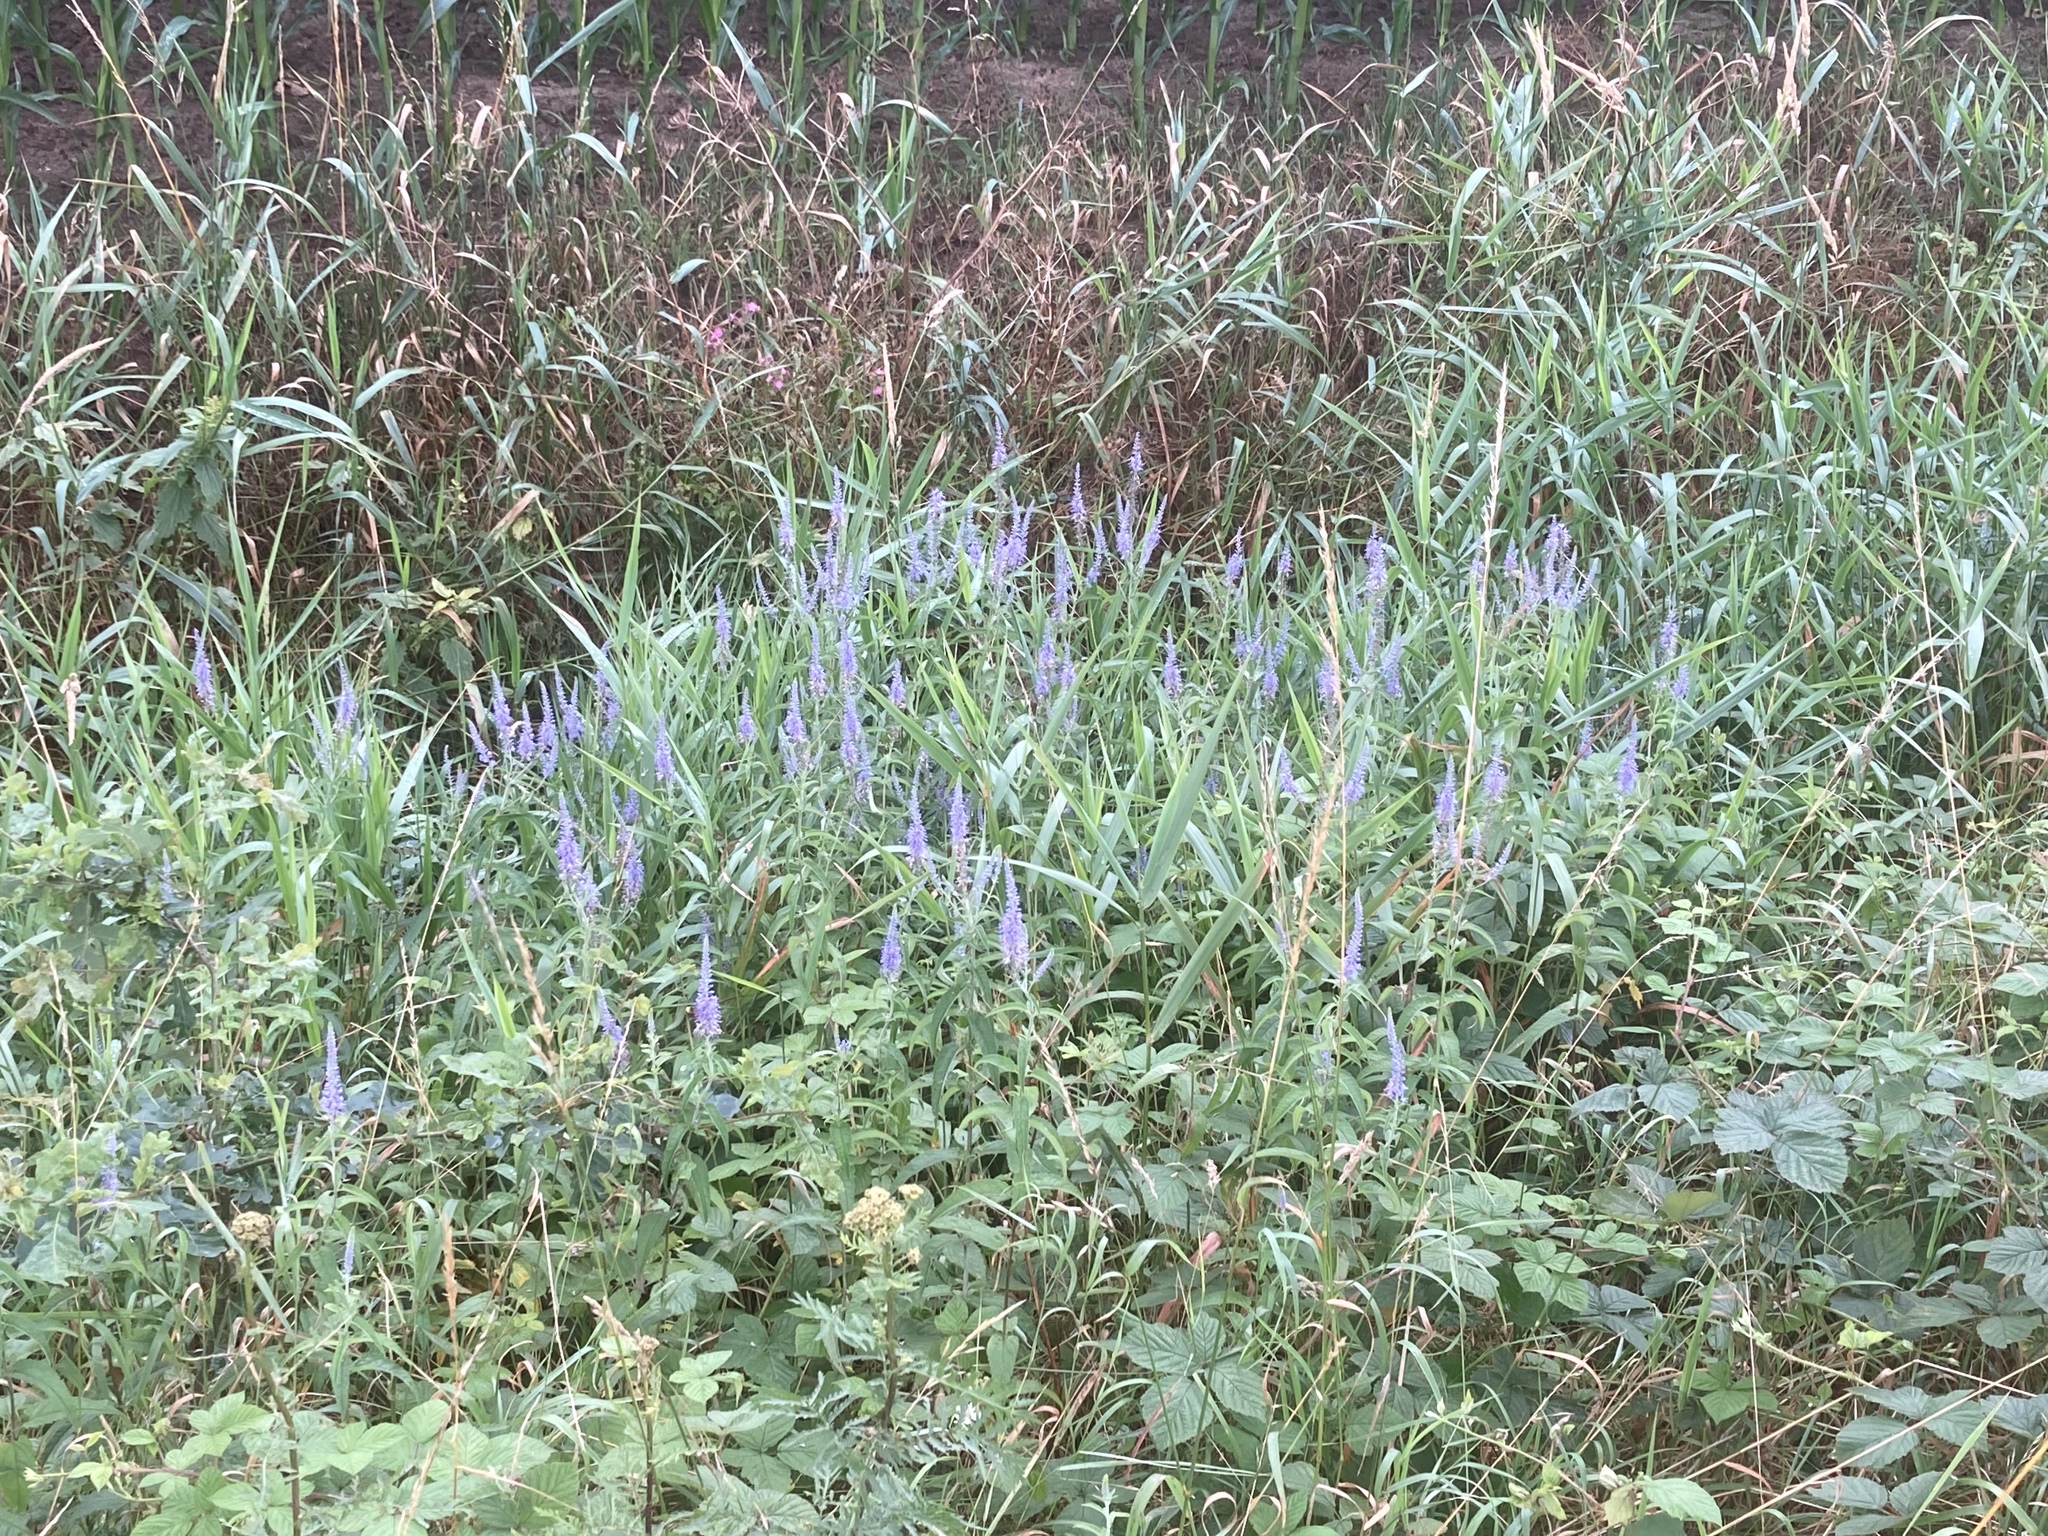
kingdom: Plantae
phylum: Tracheophyta
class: Magnoliopsida
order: Lamiales
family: Plantaginaceae
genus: Veronica
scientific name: Veronica longifolia
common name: Garden speedwell
